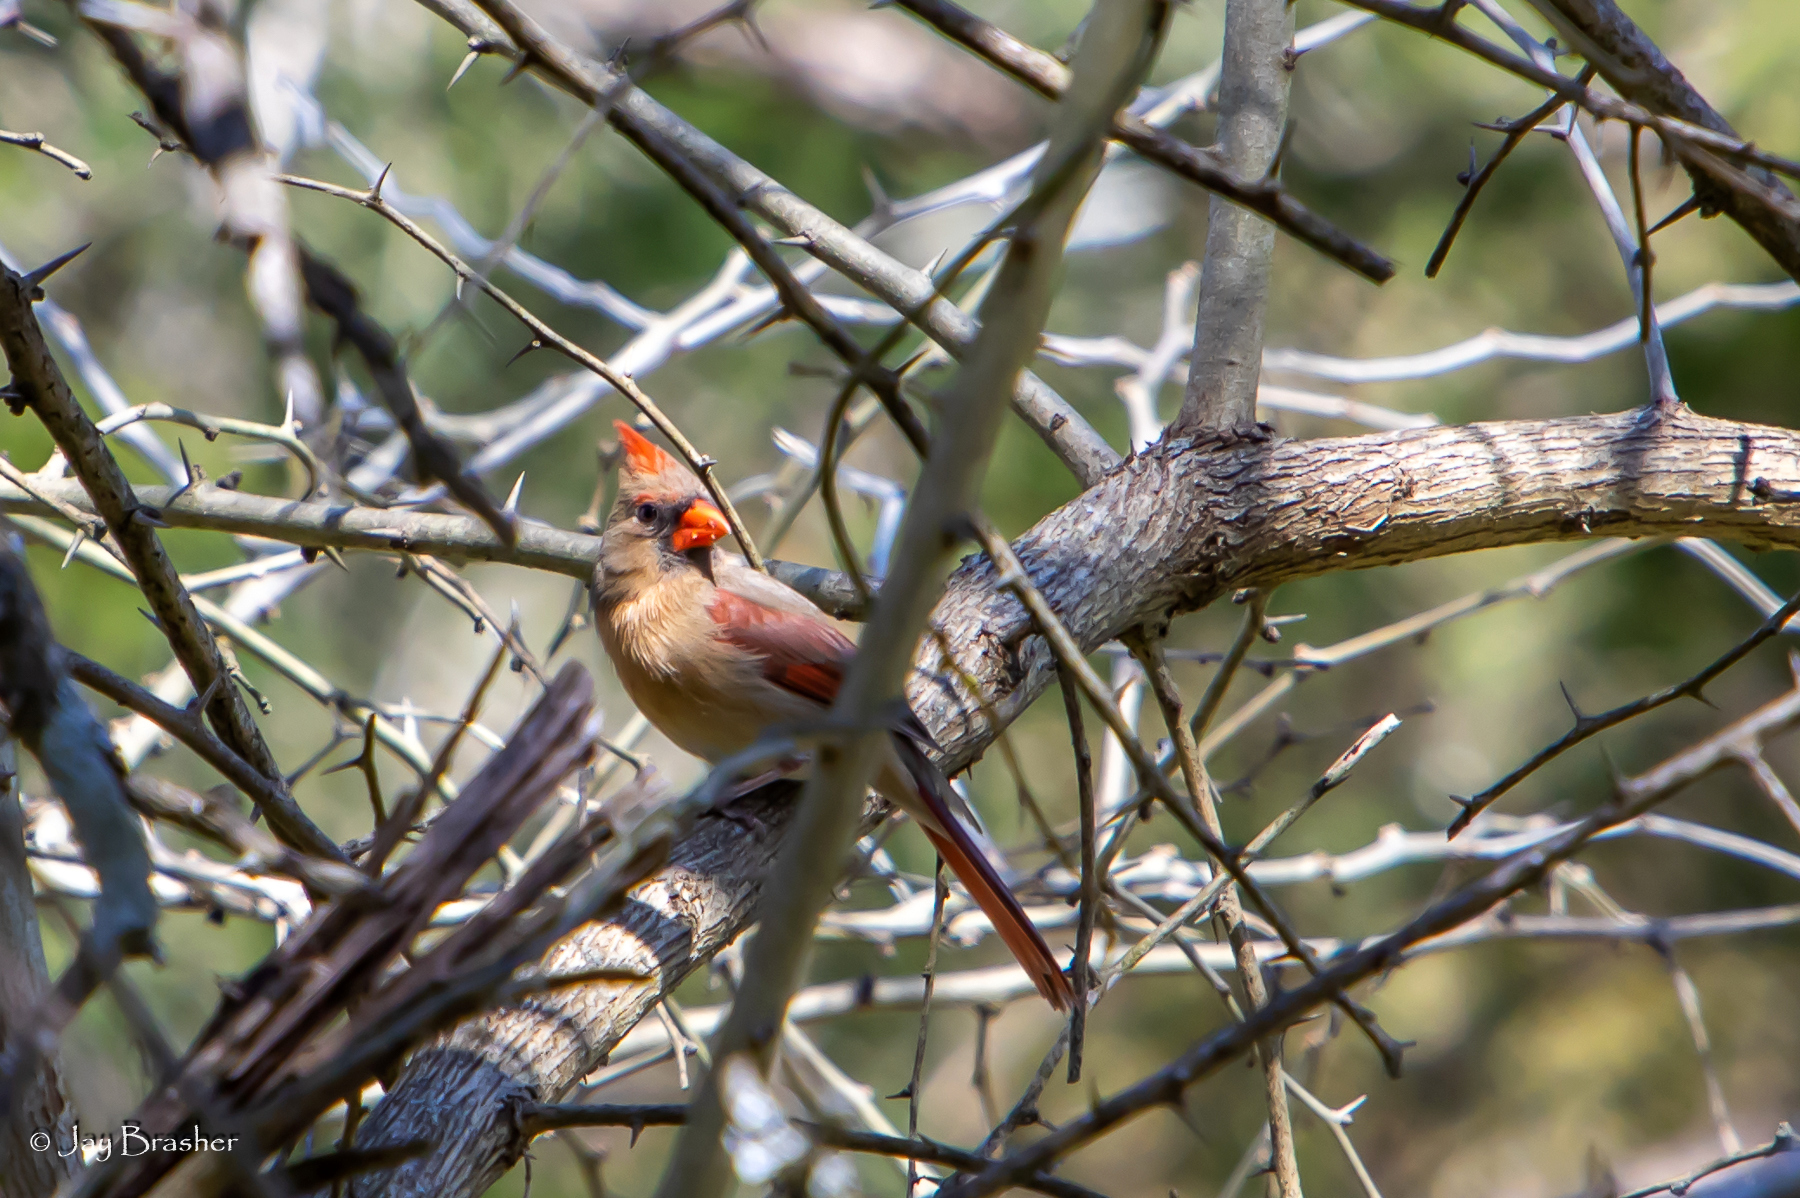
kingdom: Animalia
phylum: Chordata
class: Aves
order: Passeriformes
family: Cardinalidae
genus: Cardinalis
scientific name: Cardinalis cardinalis
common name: Northern cardinal
